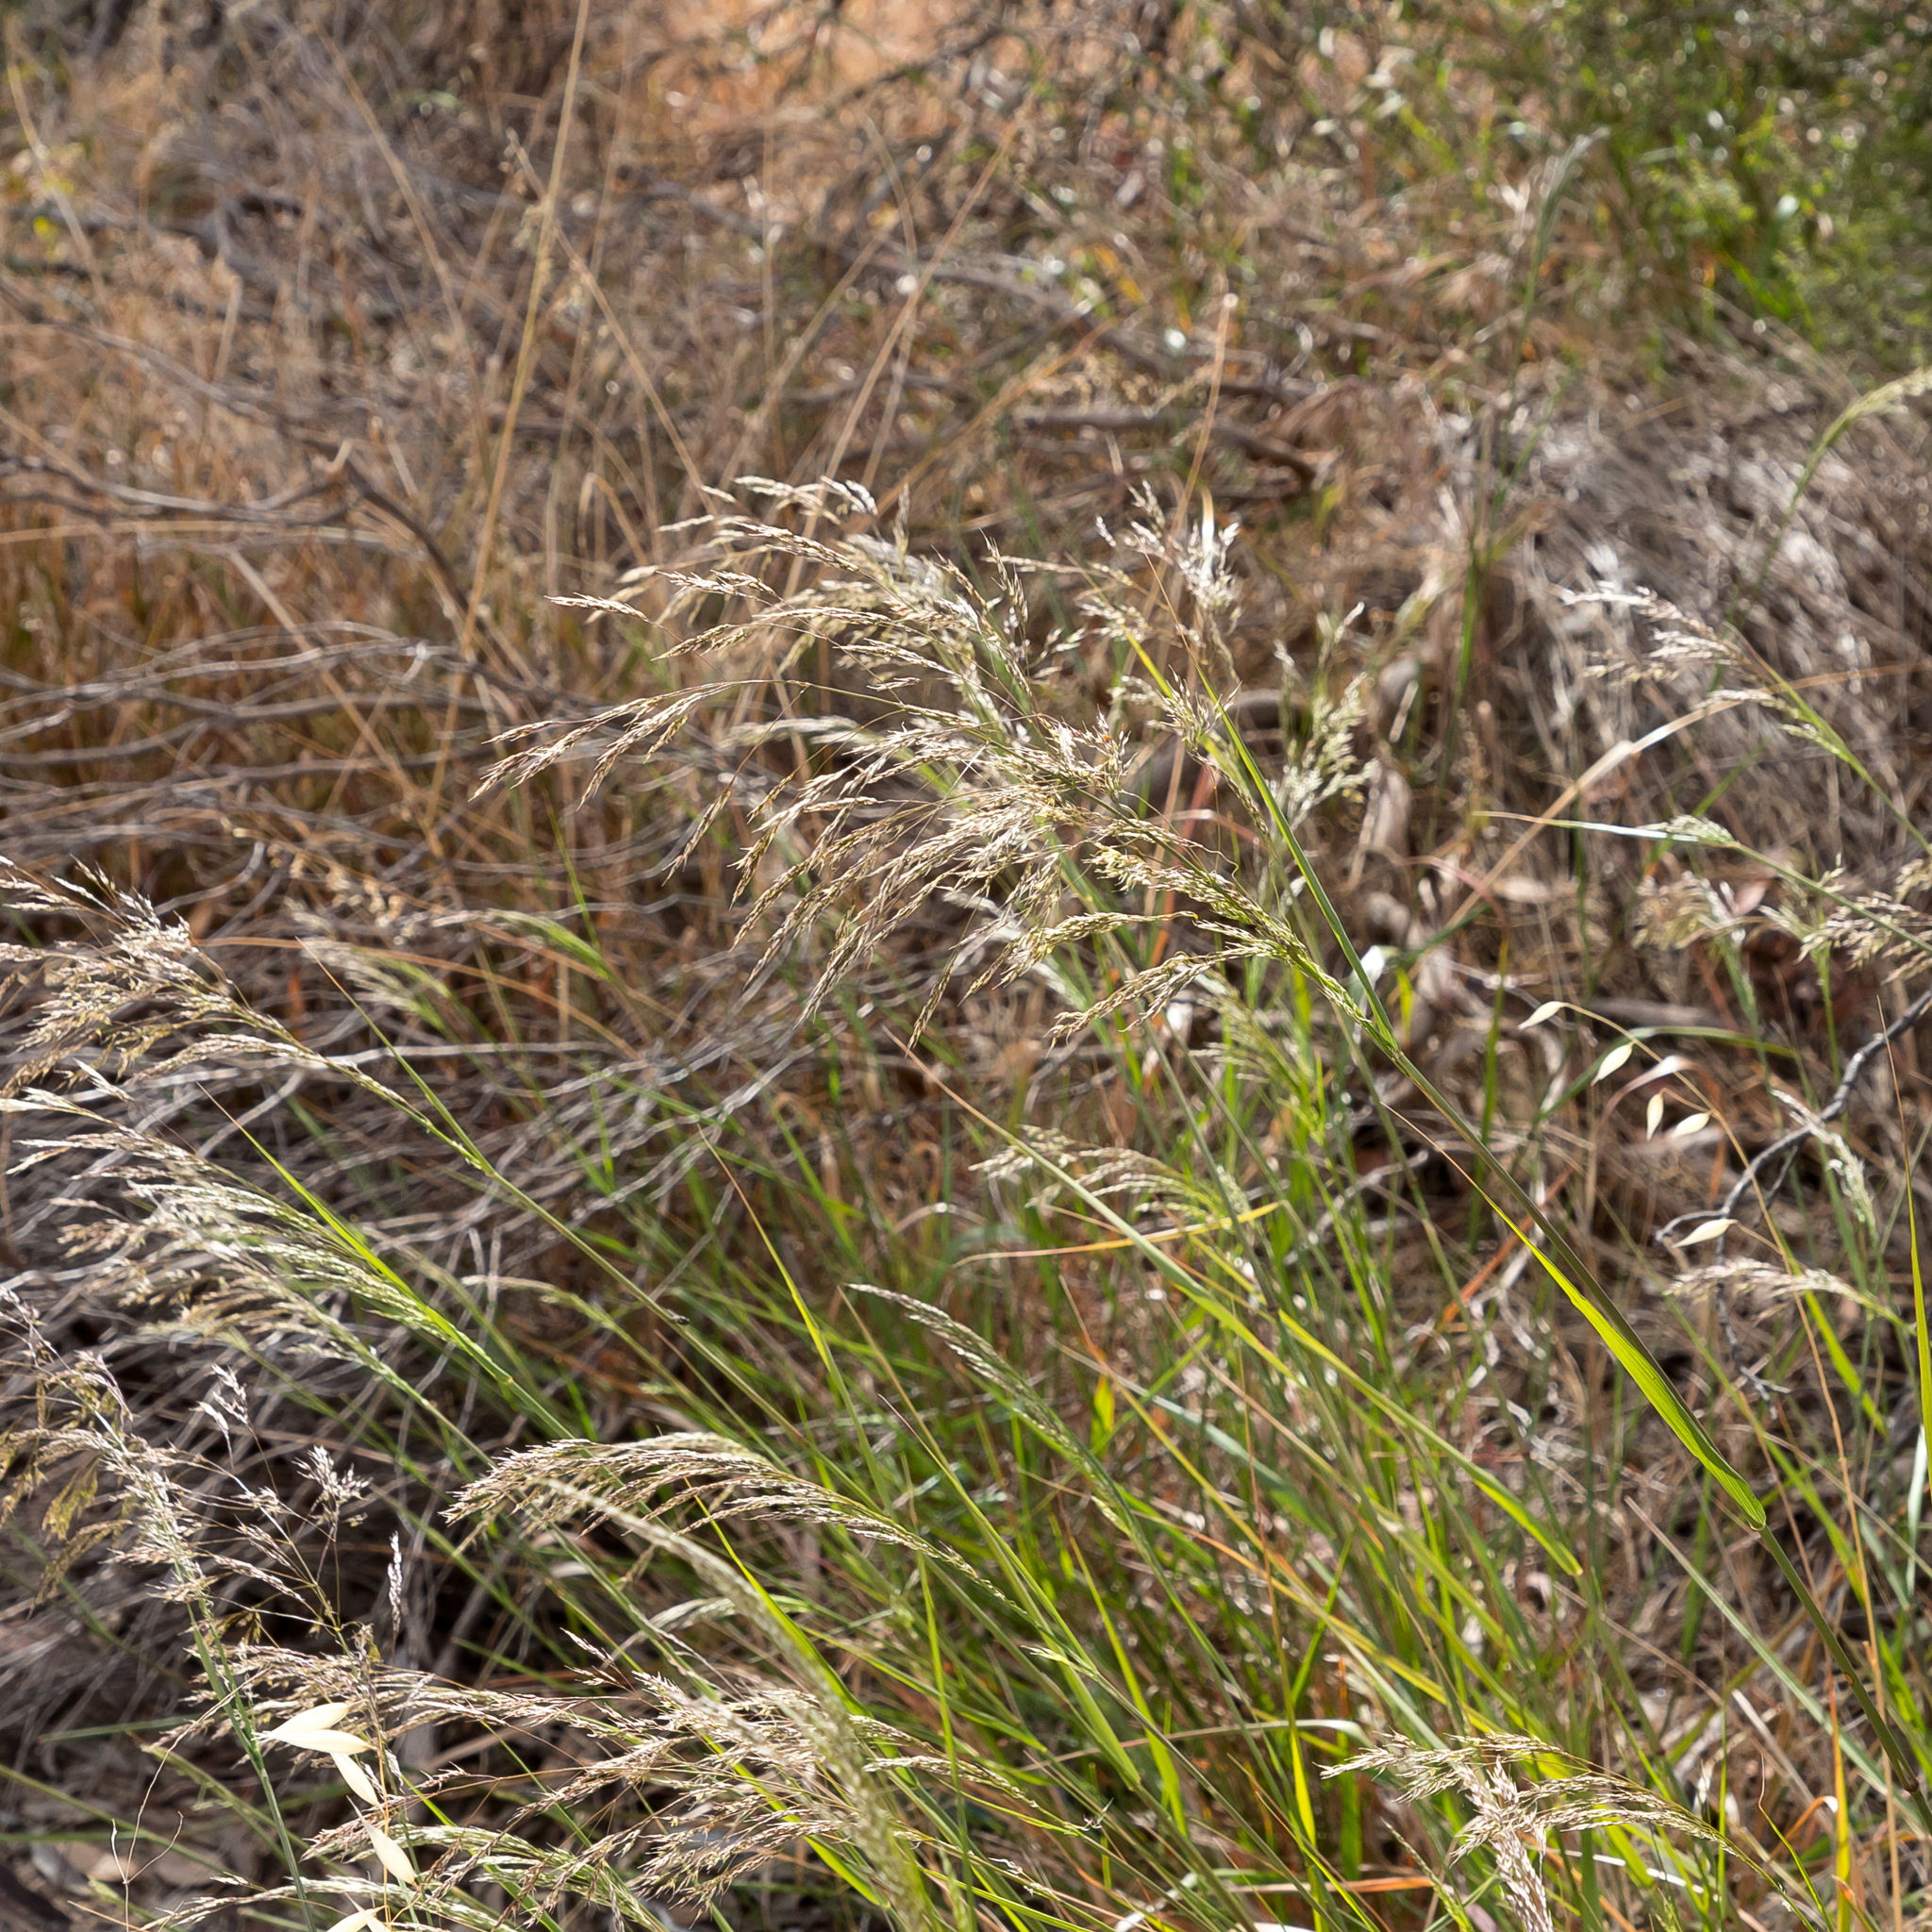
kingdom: Plantae
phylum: Tracheophyta
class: Liliopsida
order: Poales
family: Poaceae
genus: Oloptum
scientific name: Oloptum miliaceum
